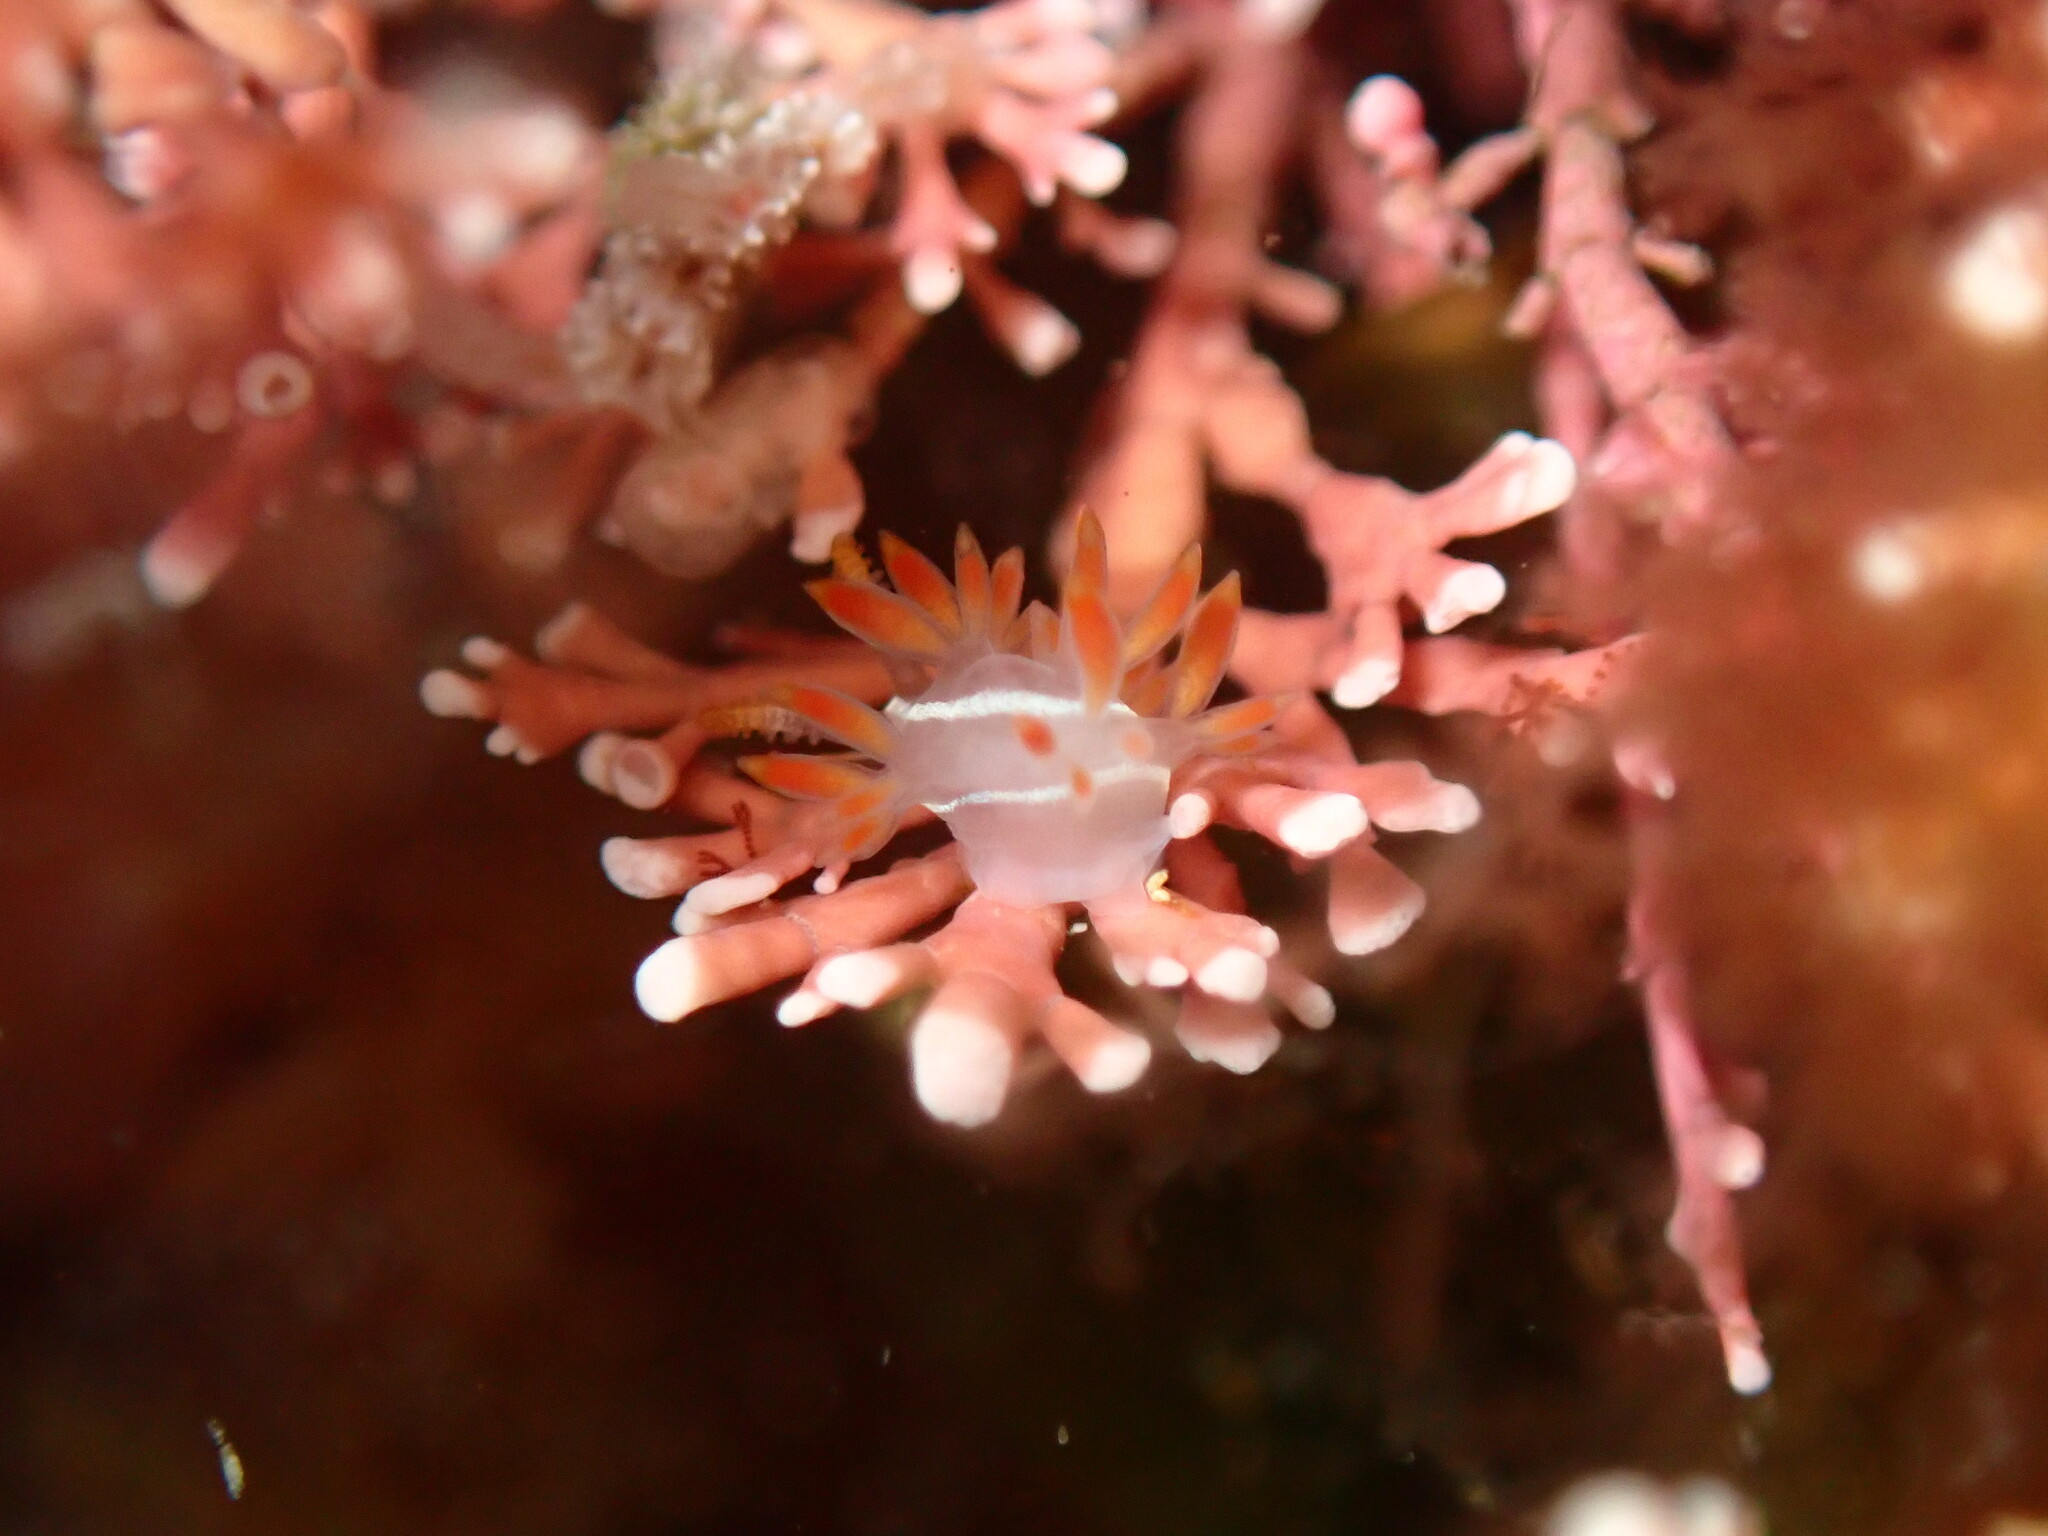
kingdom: Animalia
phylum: Mollusca
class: Gastropoda
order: Nudibranchia
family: Coryphellidae
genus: Coryphella
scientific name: Coryphella trilineata
